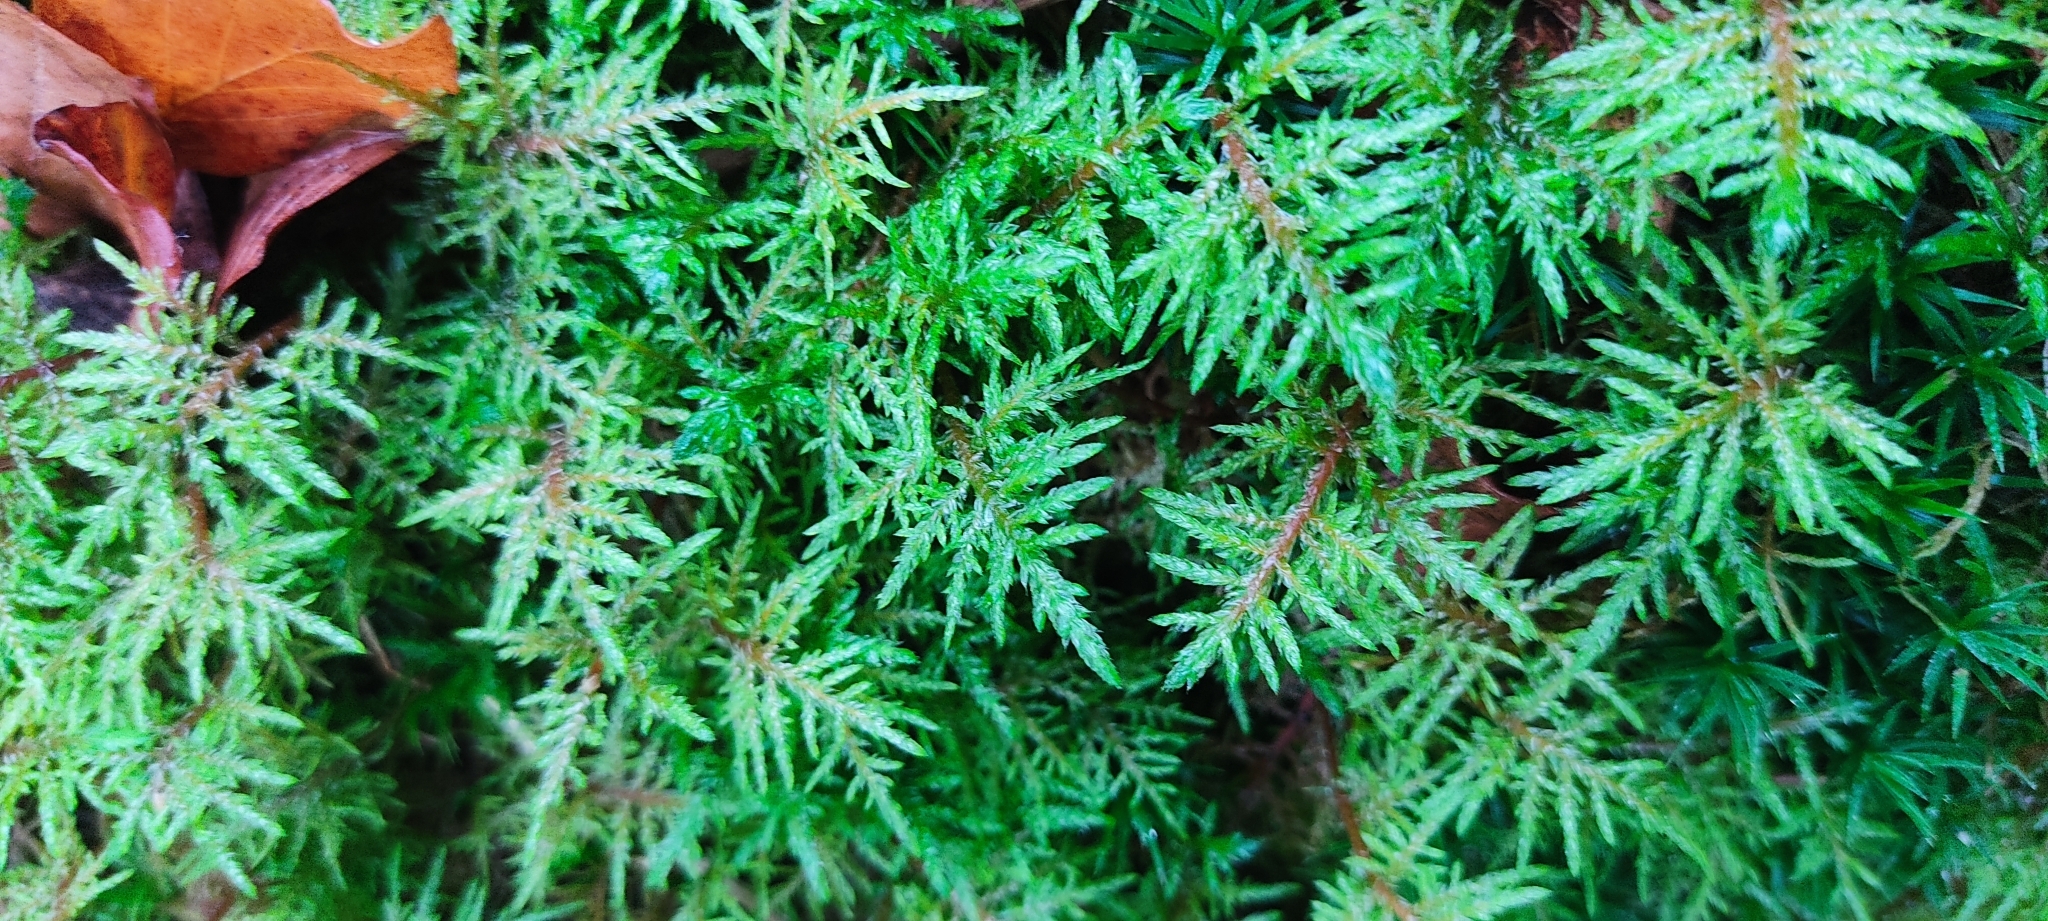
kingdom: Plantae
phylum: Bryophyta
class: Bryopsida
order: Hypnales
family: Hylocomiaceae
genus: Hylocomium
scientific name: Hylocomium splendens
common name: Stairstep moss
